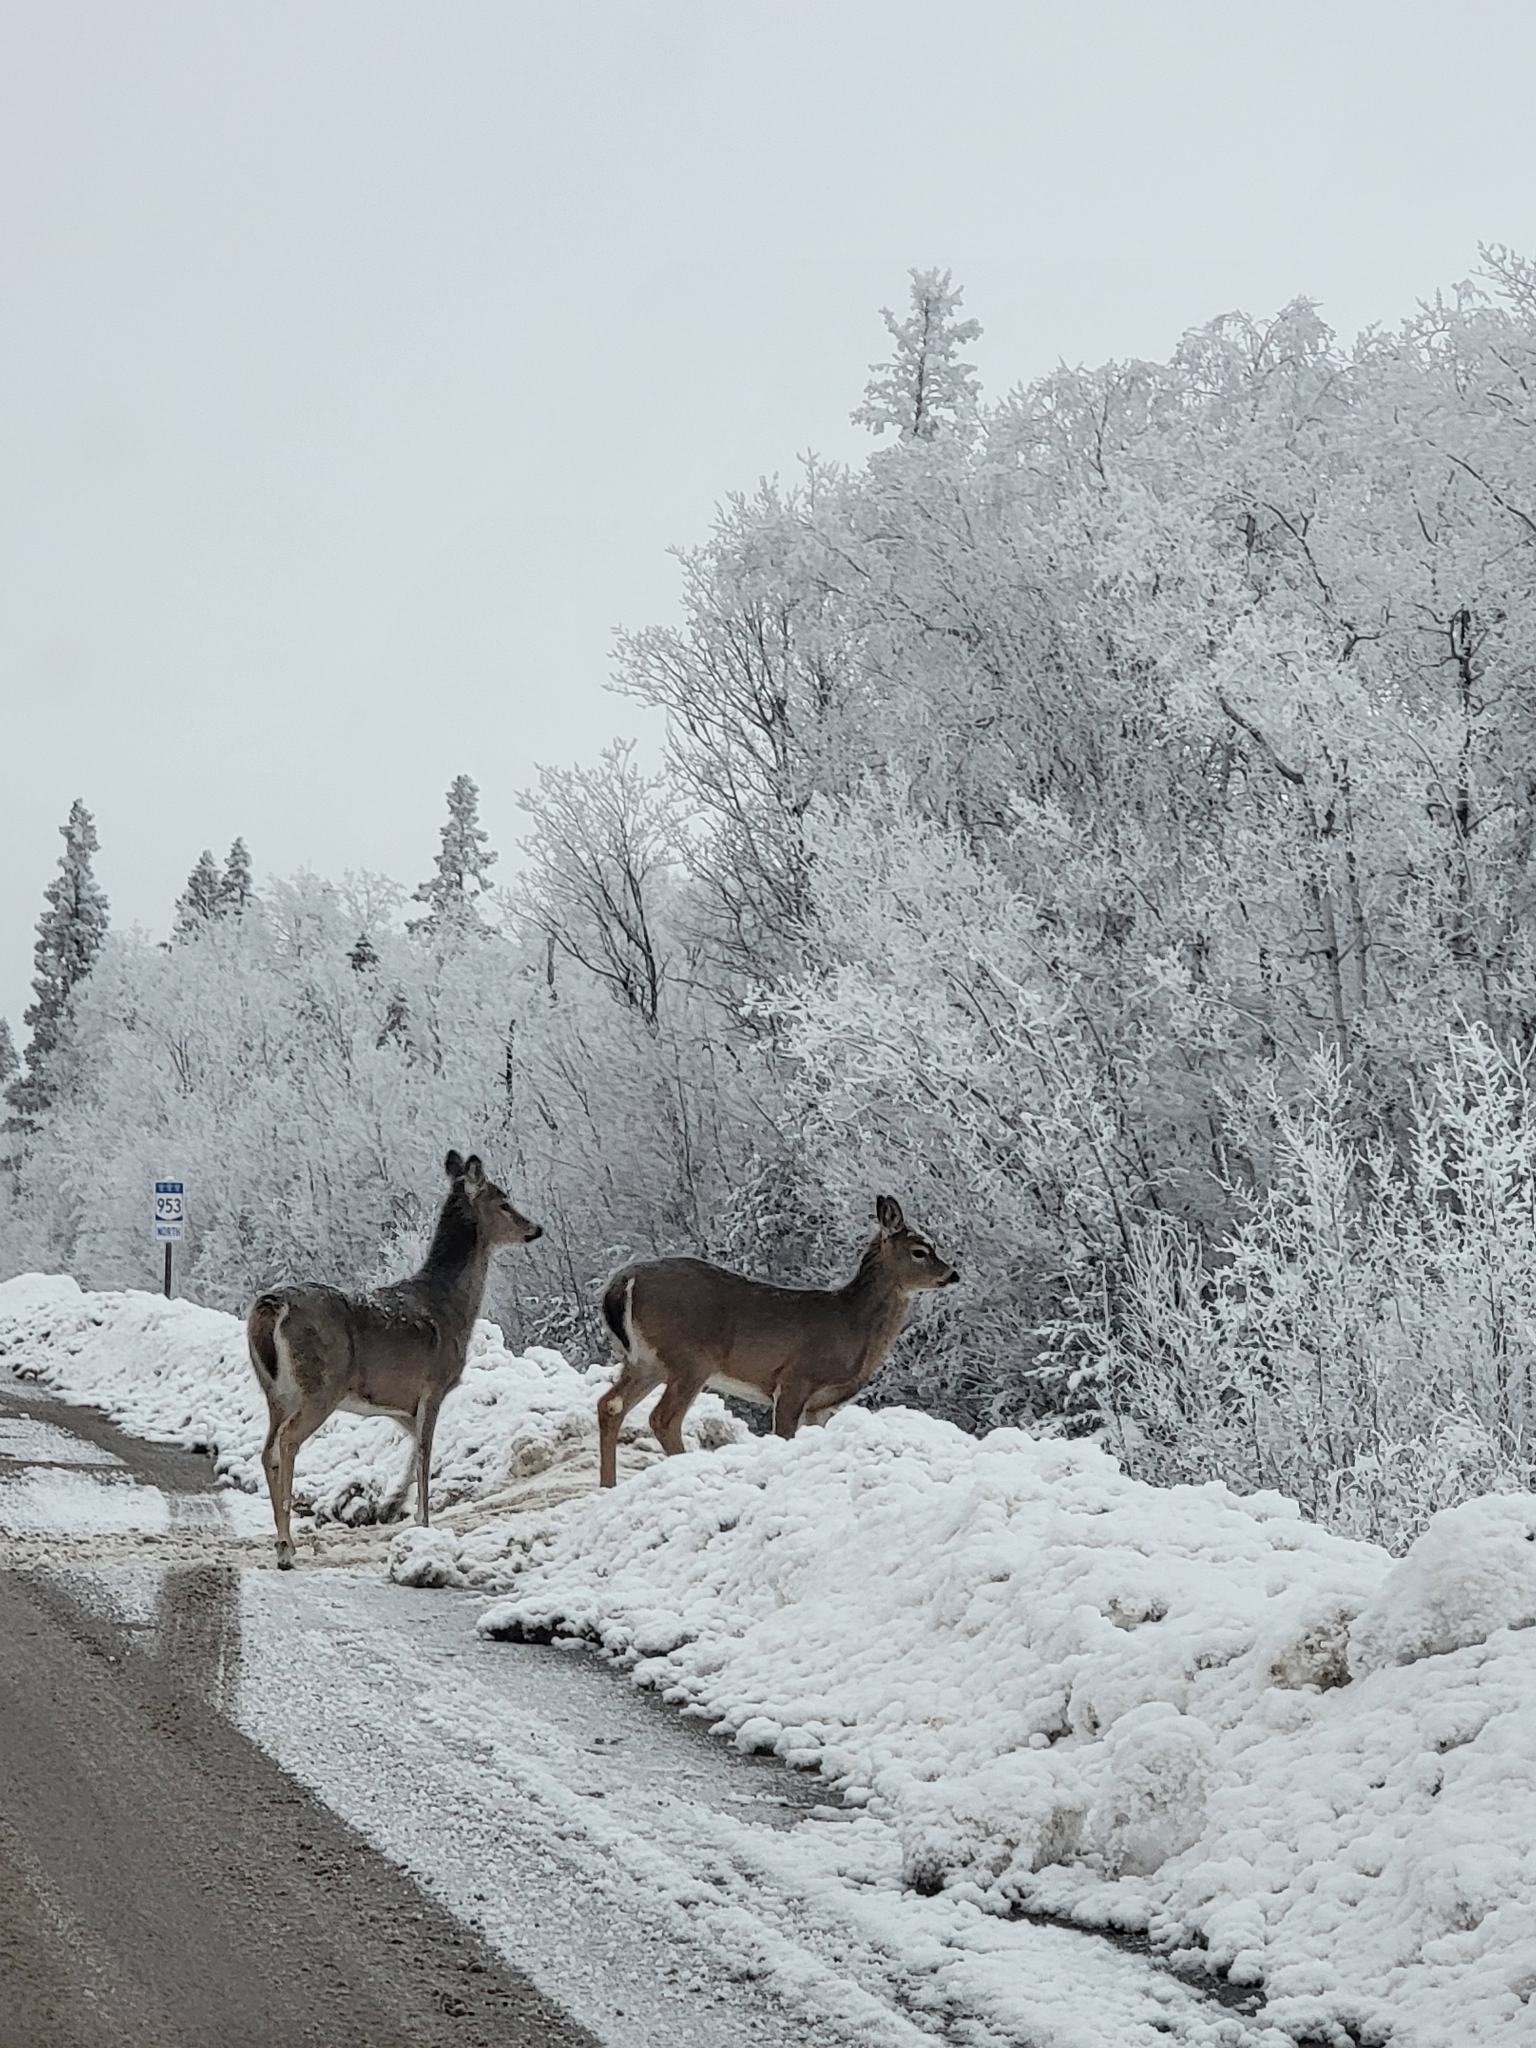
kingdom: Animalia
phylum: Chordata
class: Mammalia
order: Artiodactyla
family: Cervidae
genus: Odocoileus
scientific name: Odocoileus virginianus
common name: White-tailed deer
